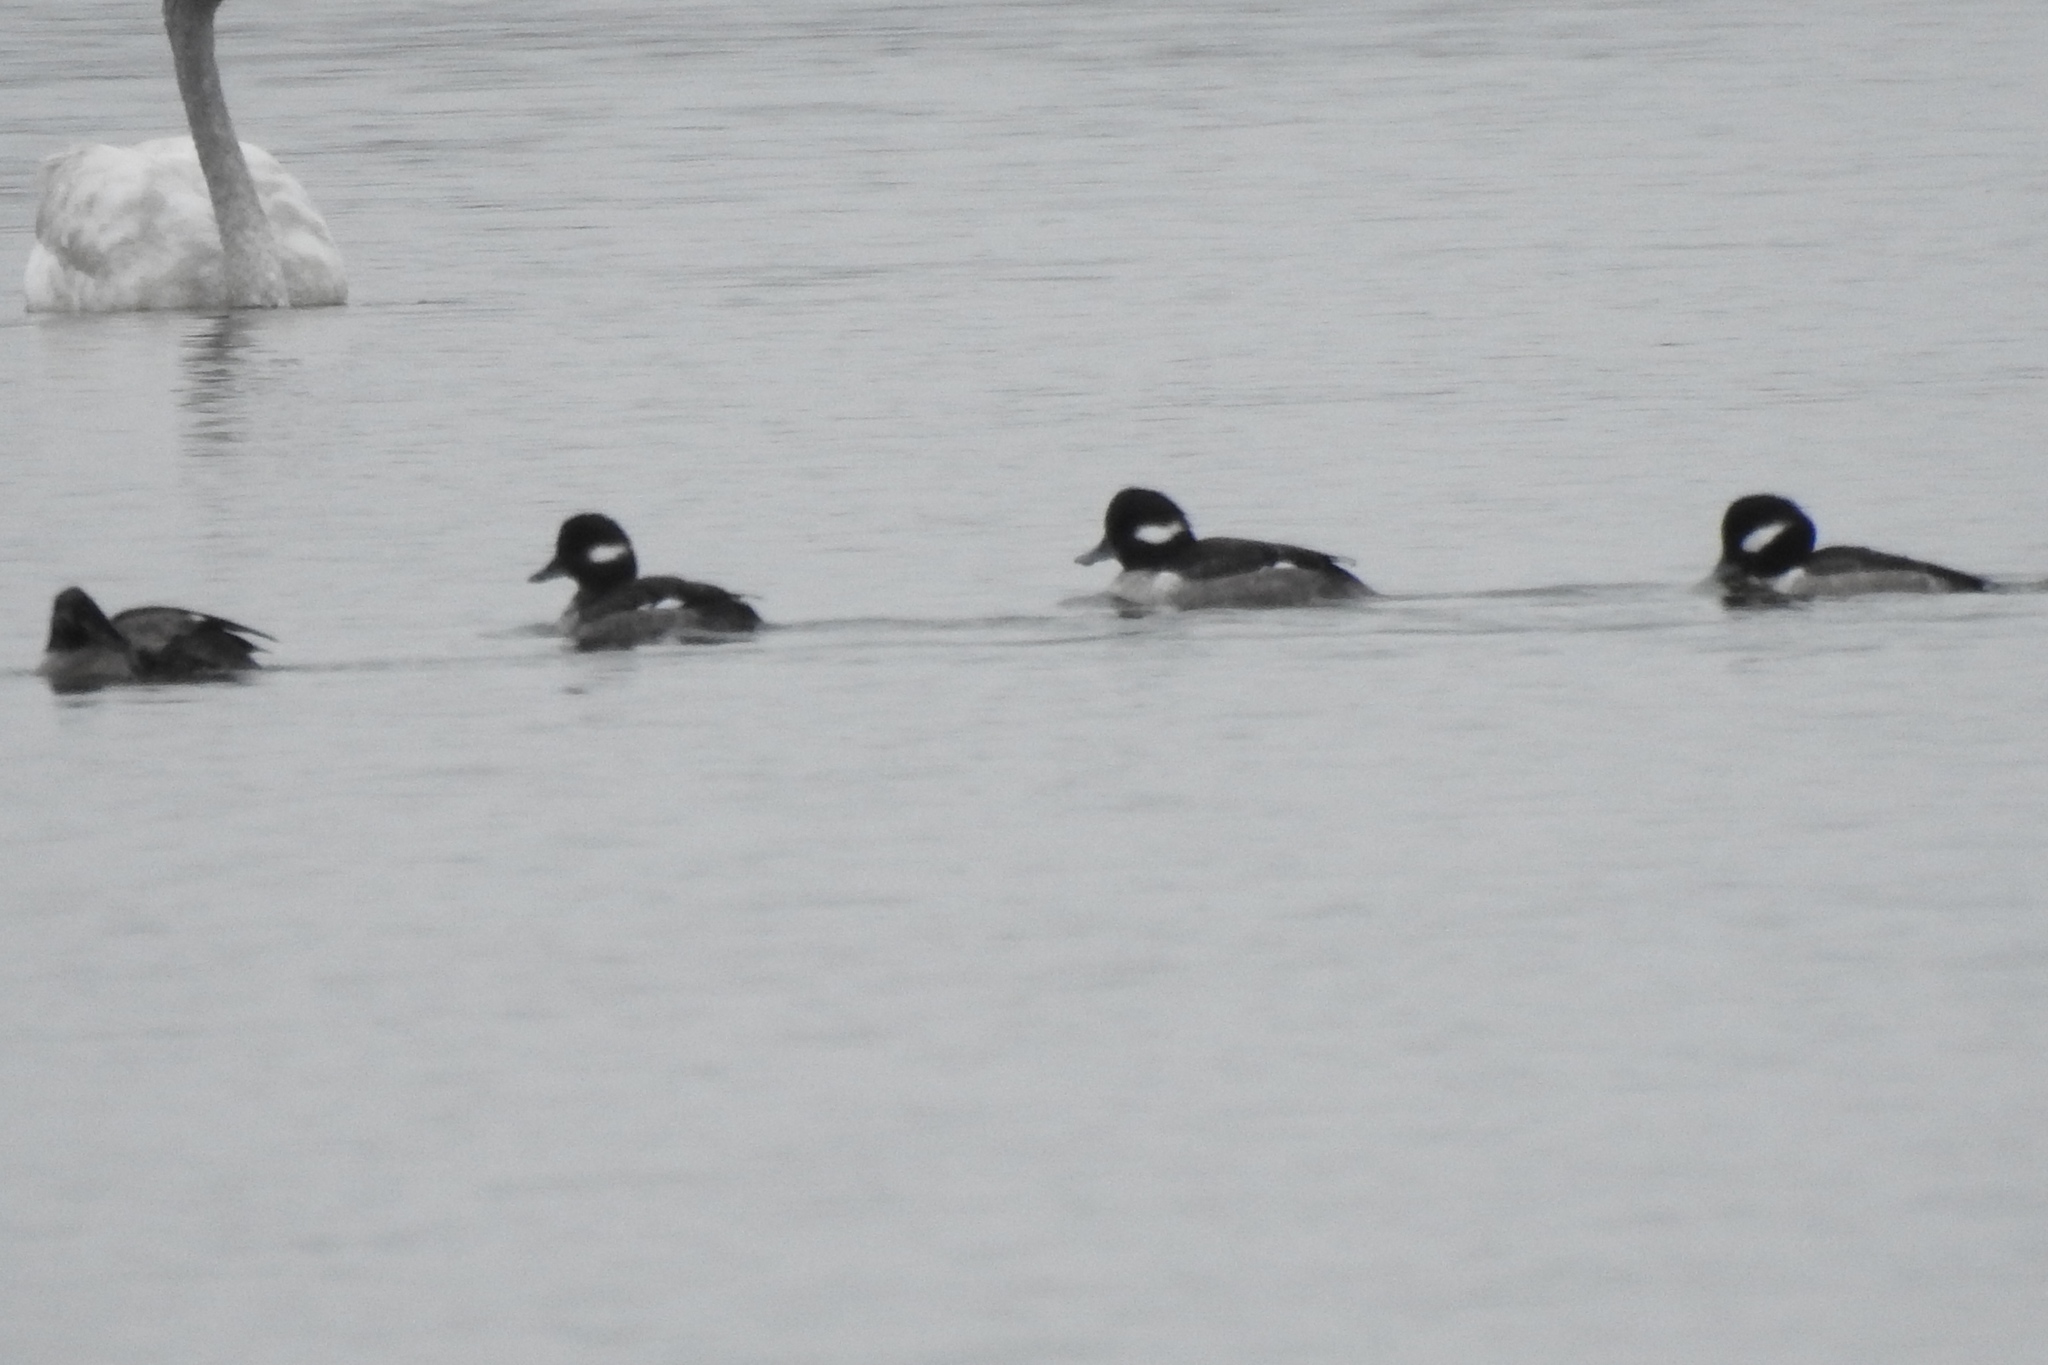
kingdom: Animalia
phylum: Chordata
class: Aves
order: Anseriformes
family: Anatidae
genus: Bucephala
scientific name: Bucephala albeola
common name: Bufflehead
